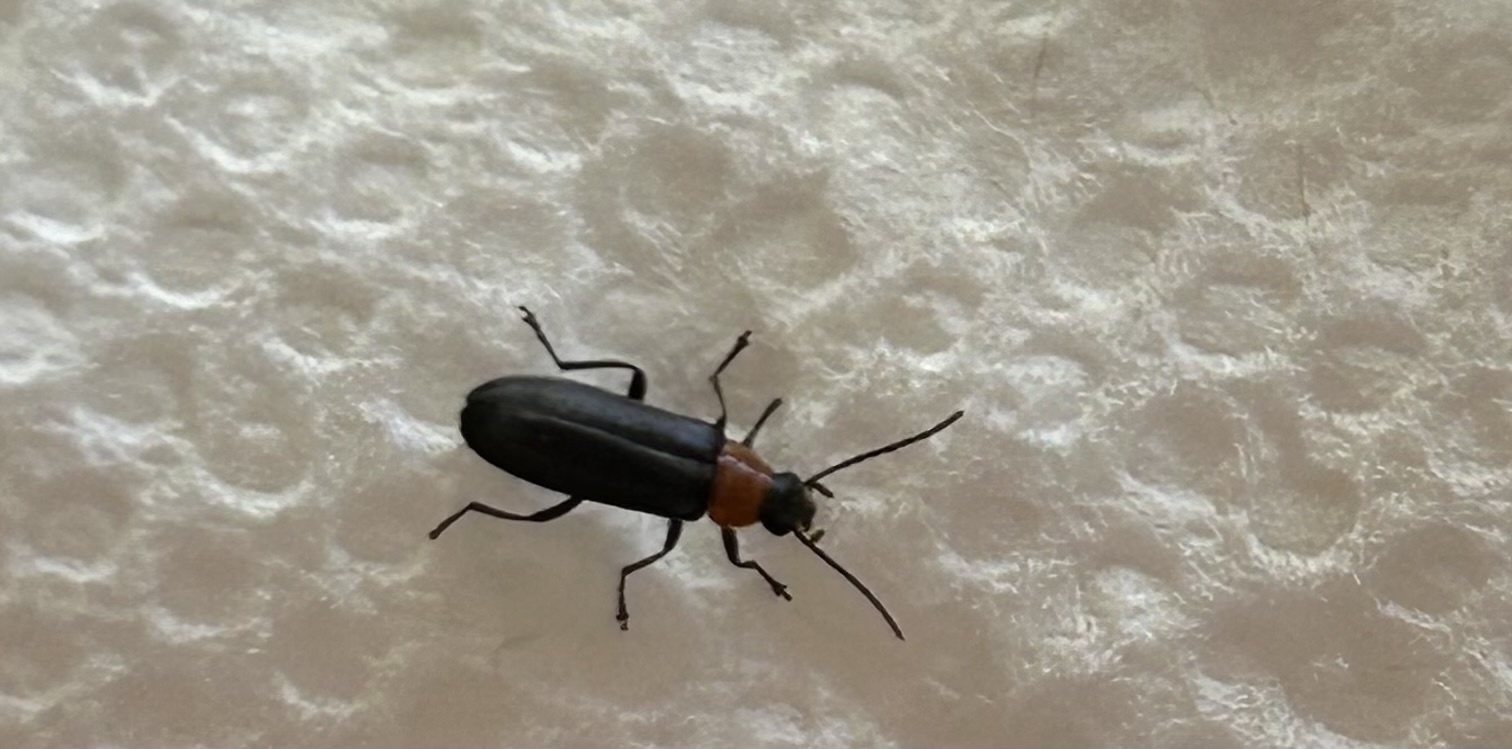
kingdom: Animalia
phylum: Arthropoda
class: Insecta
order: Coleoptera
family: Melandryidae
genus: Osphya
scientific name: Osphya varians
